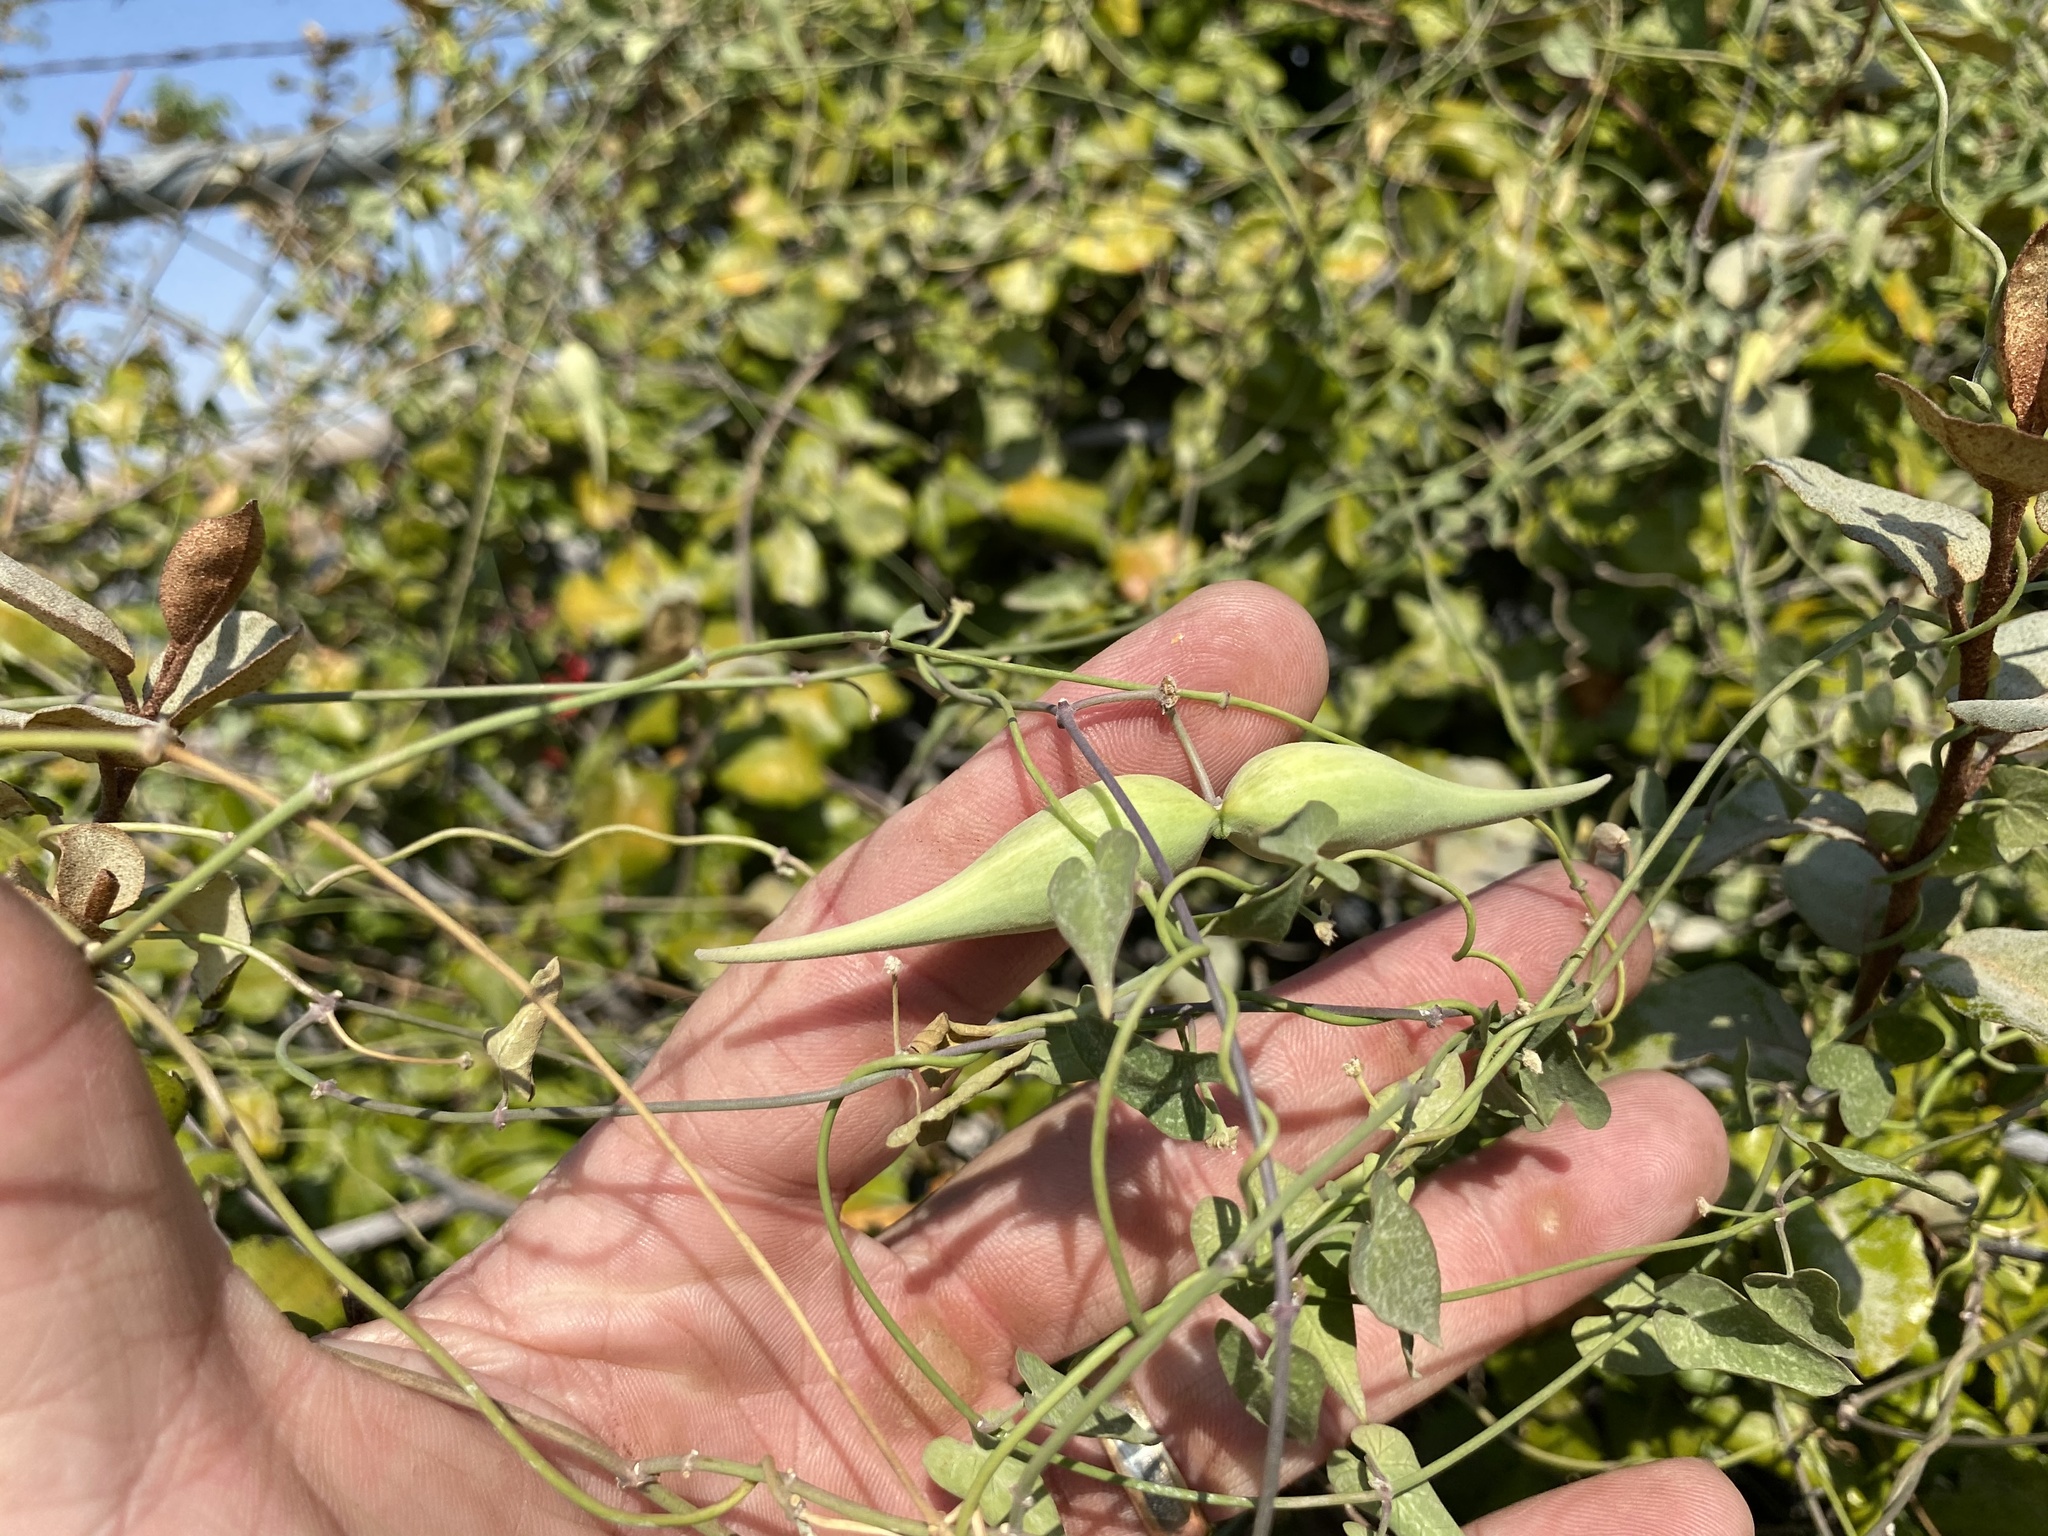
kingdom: Plantae
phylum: Tracheophyta
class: Magnoliopsida
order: Gentianales
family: Apocynaceae
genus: Funastrum
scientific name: Funastrum cynanchoides
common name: Climbing-milkweed
